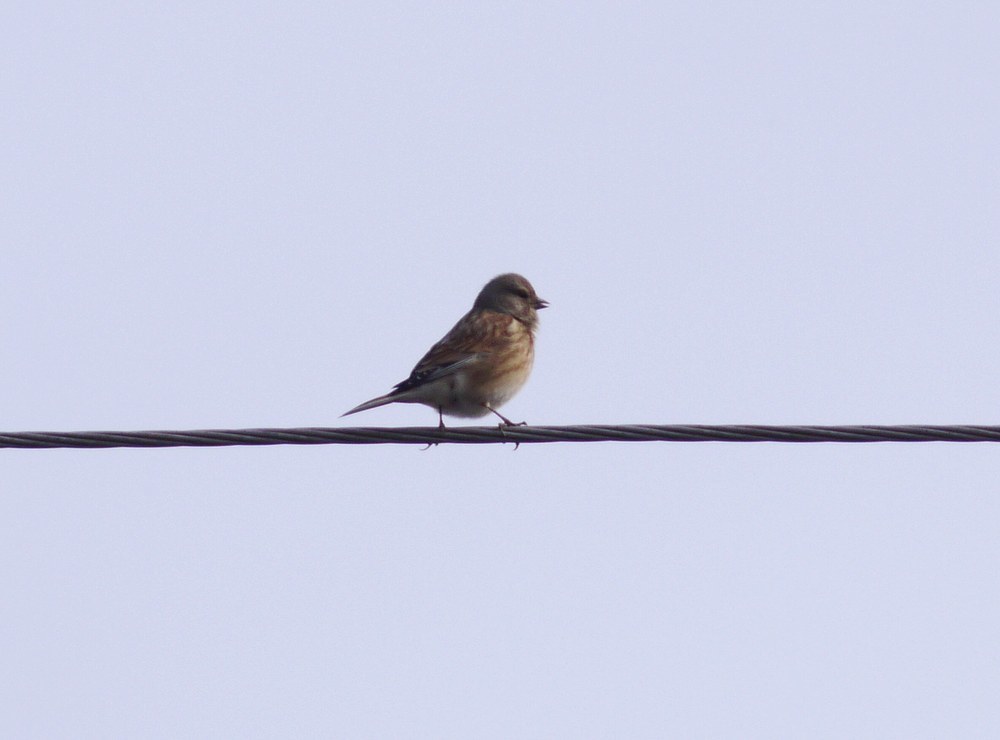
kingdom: Animalia
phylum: Chordata
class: Aves
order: Passeriformes
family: Fringillidae
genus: Linaria
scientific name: Linaria cannabina
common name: Common linnet
